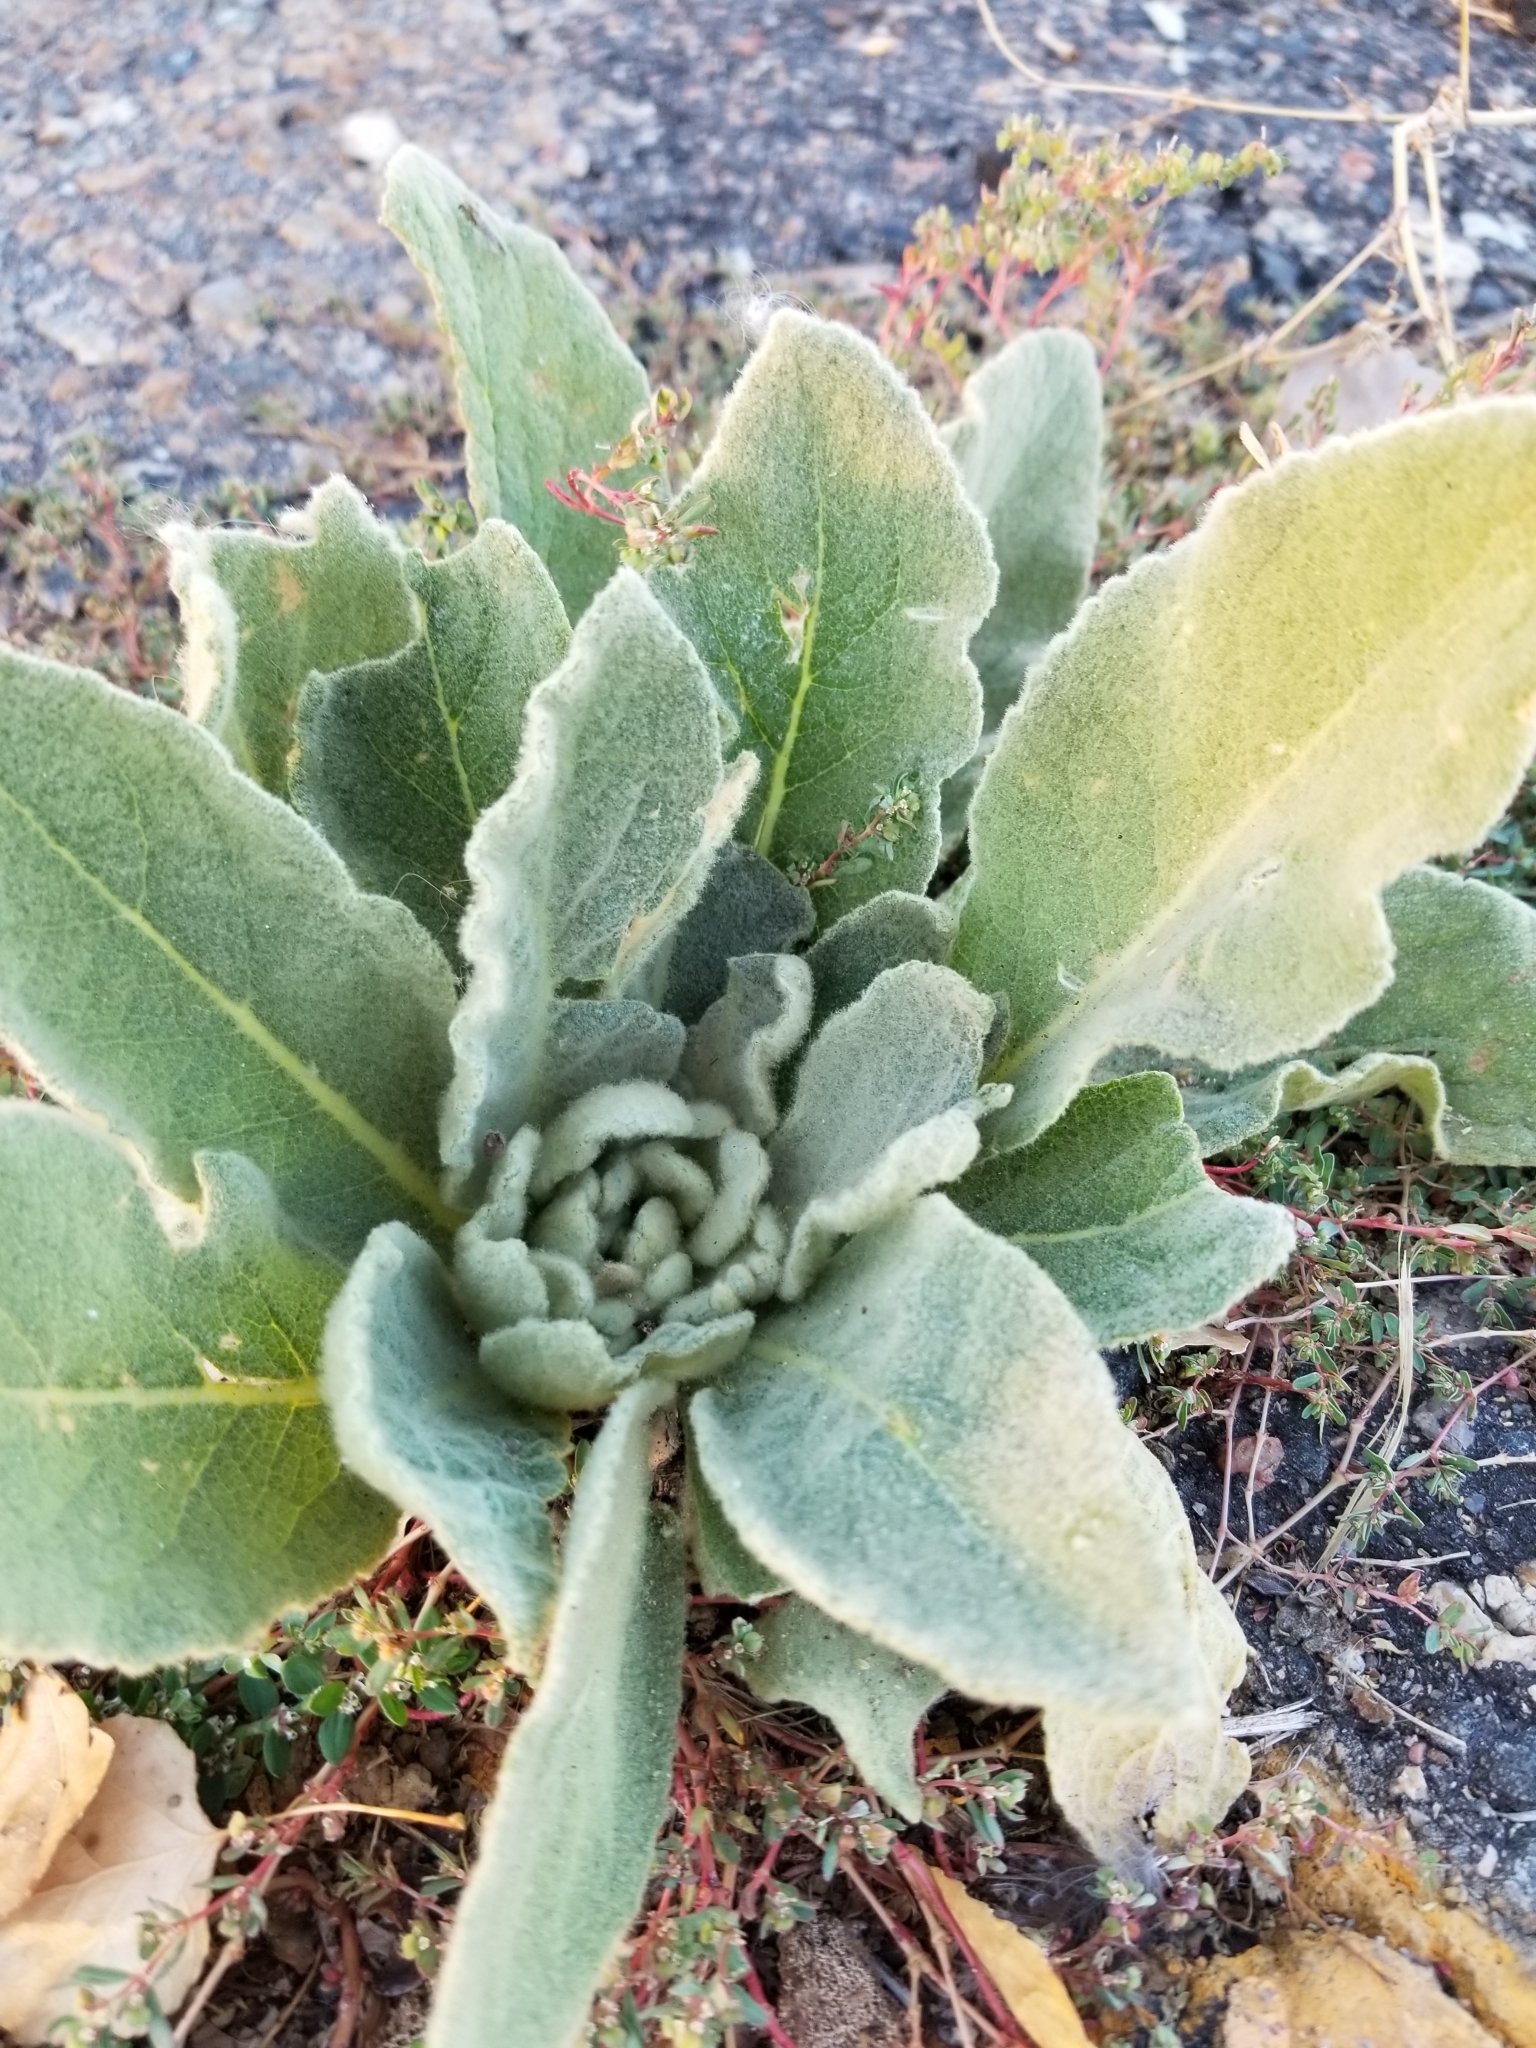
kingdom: Plantae
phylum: Tracheophyta
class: Magnoliopsida
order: Lamiales
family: Scrophulariaceae
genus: Verbascum
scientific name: Verbascum thapsus
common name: Common mullein
